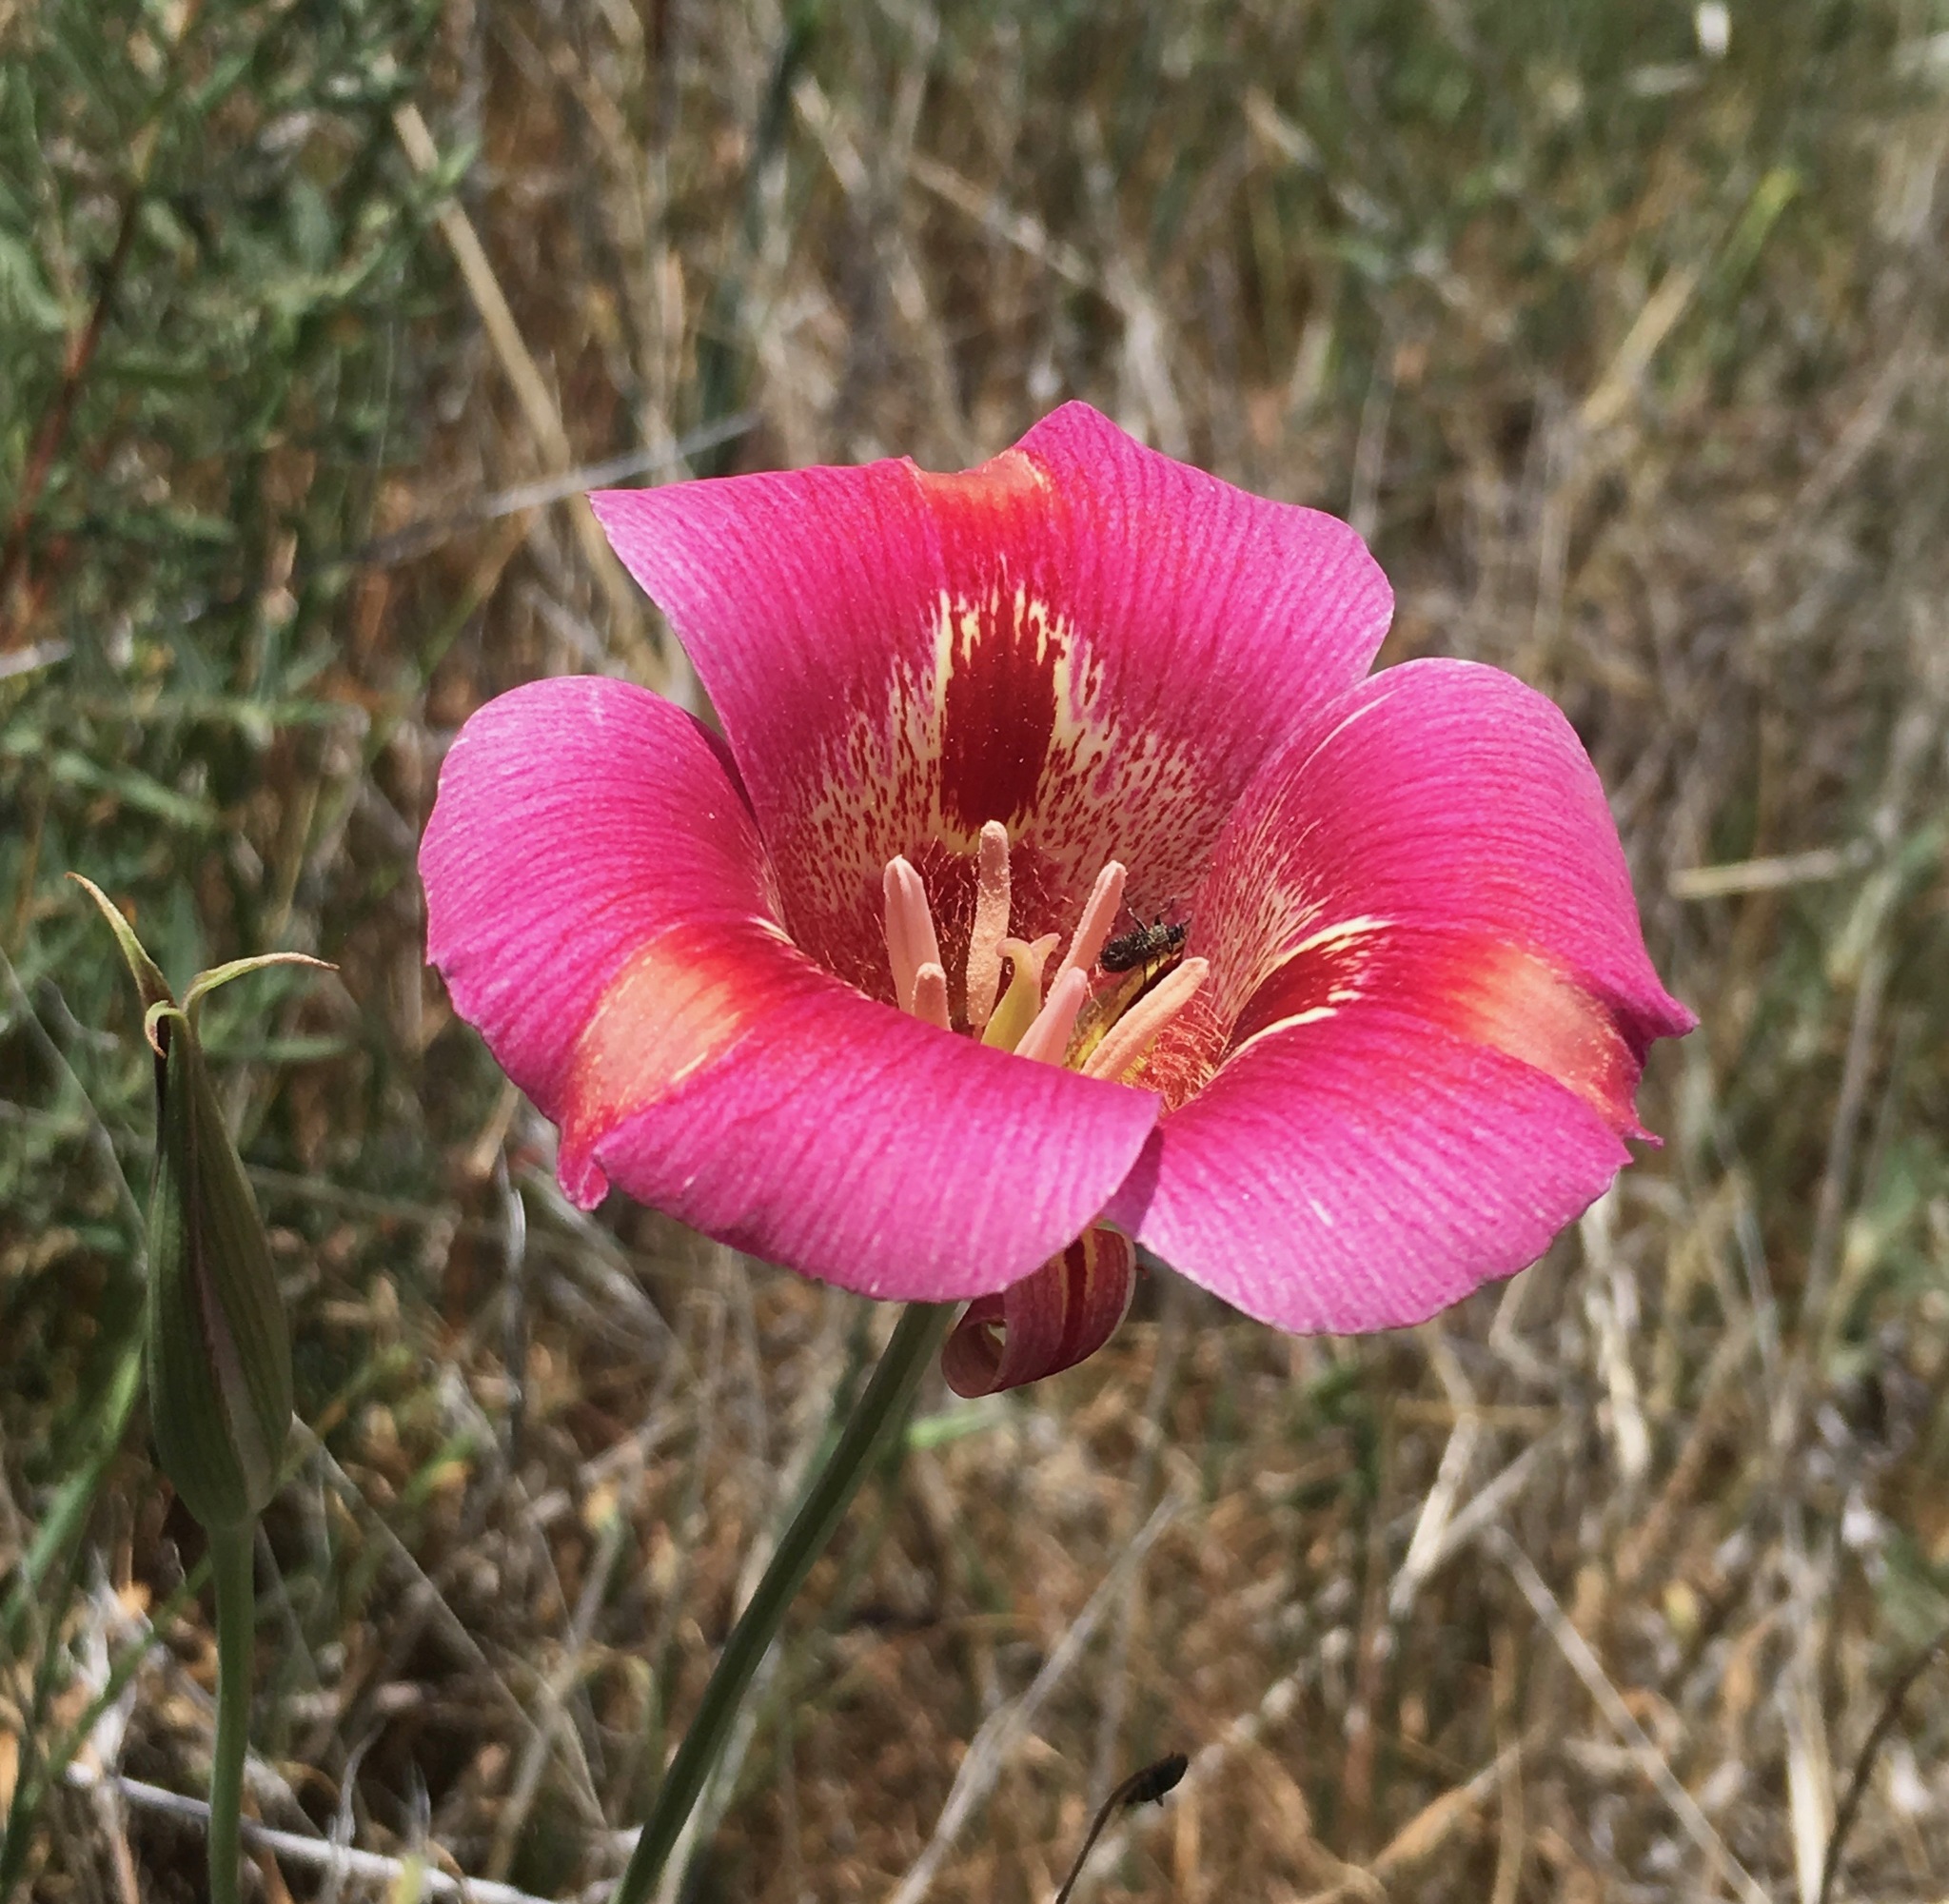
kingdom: Plantae
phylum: Tracheophyta
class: Liliopsida
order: Liliales
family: Liliaceae
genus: Calochortus
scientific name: Calochortus venustus
